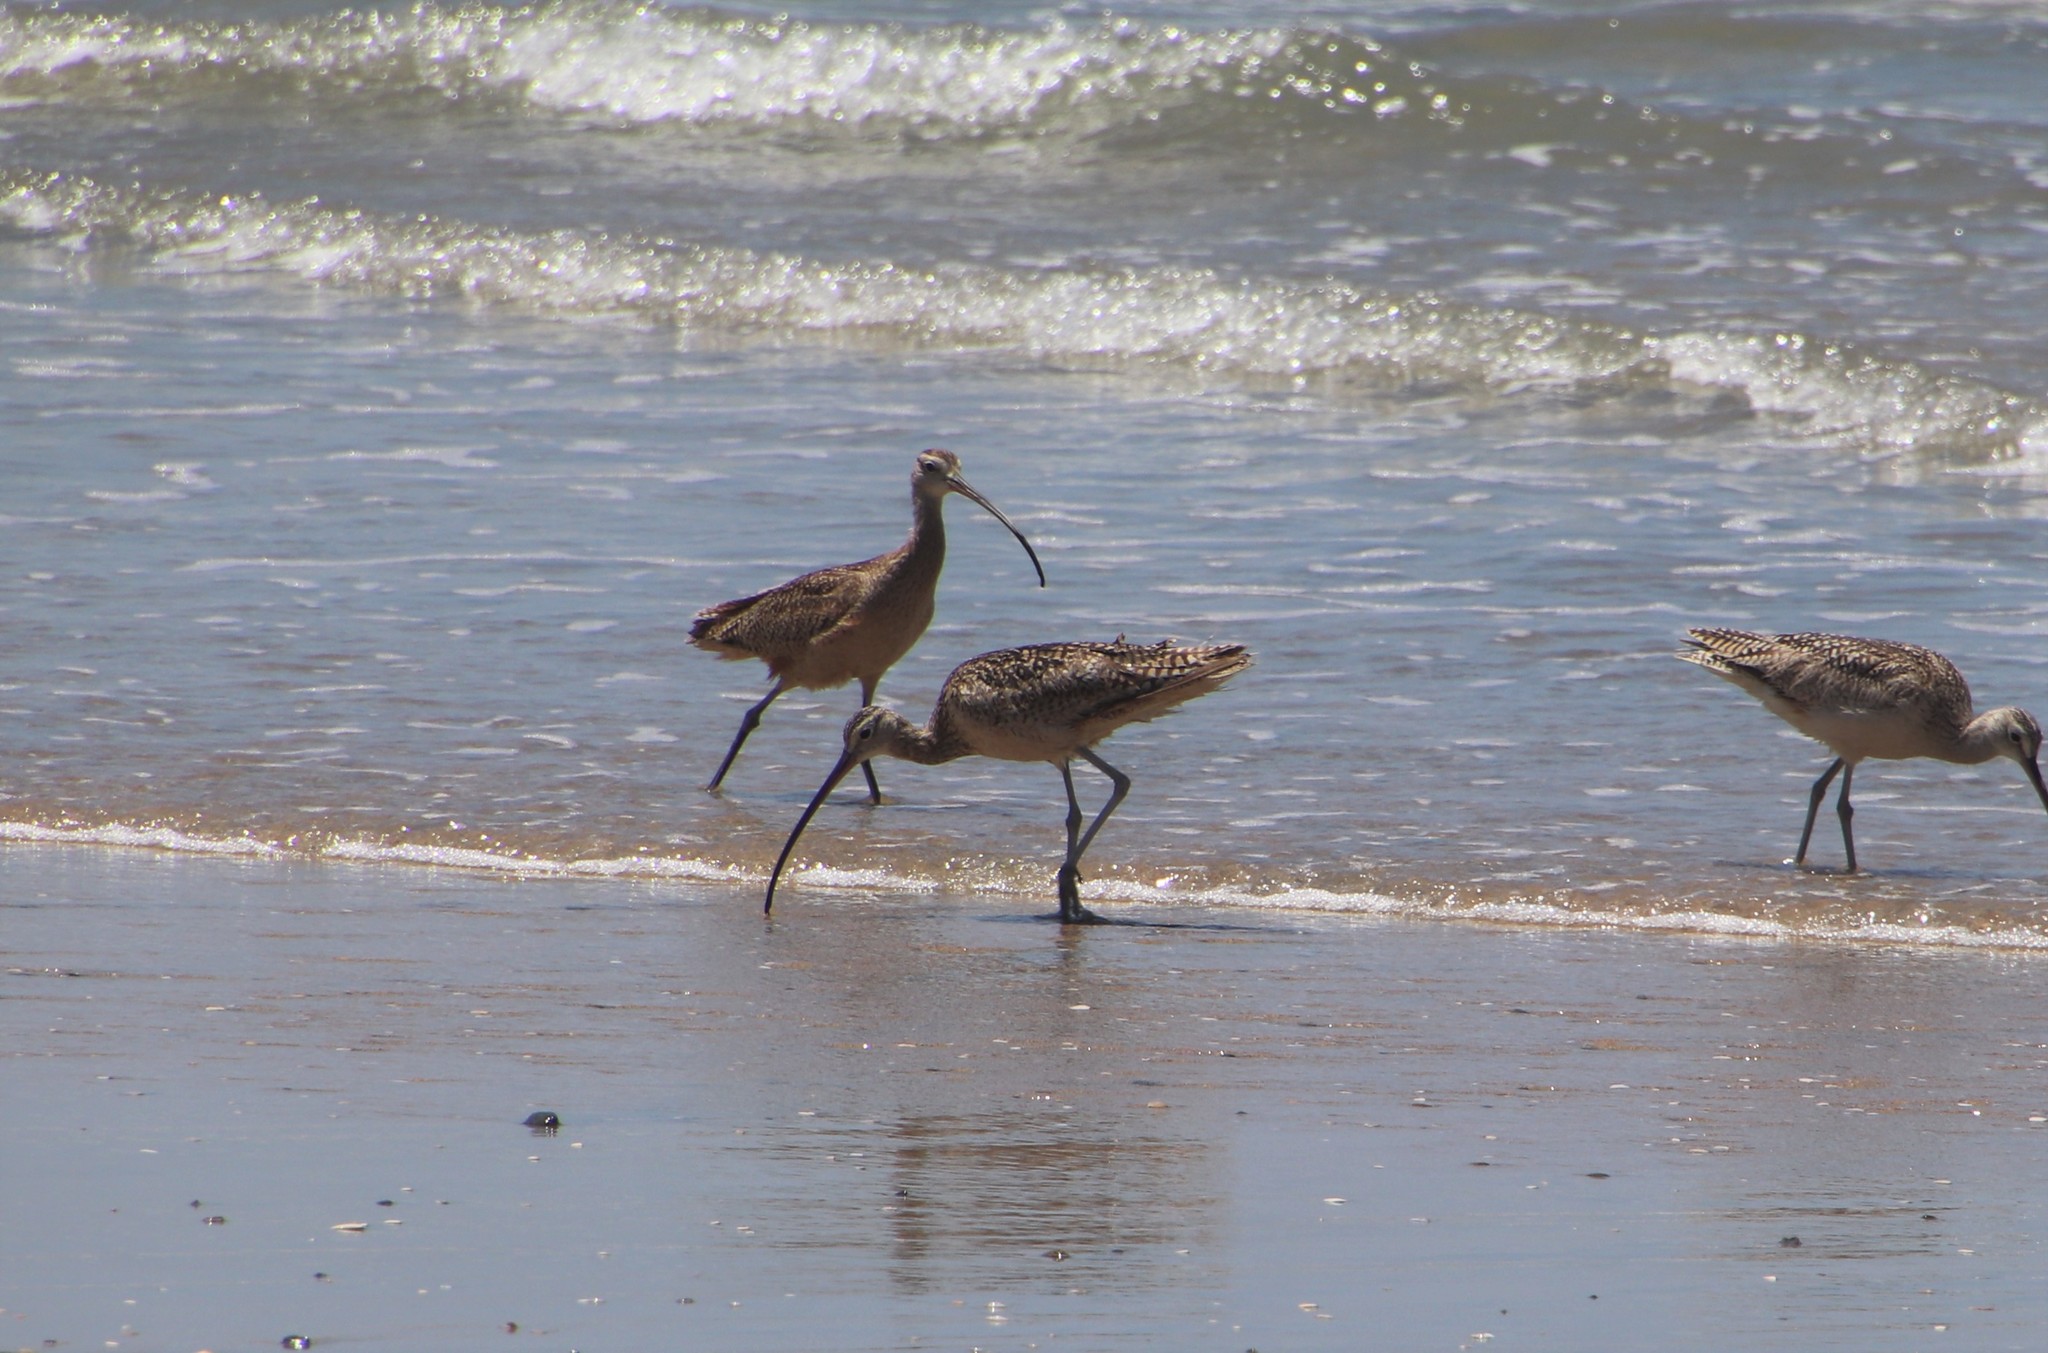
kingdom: Animalia
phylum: Chordata
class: Aves
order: Charadriiformes
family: Scolopacidae
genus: Numenius
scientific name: Numenius americanus
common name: Long-billed curlew
